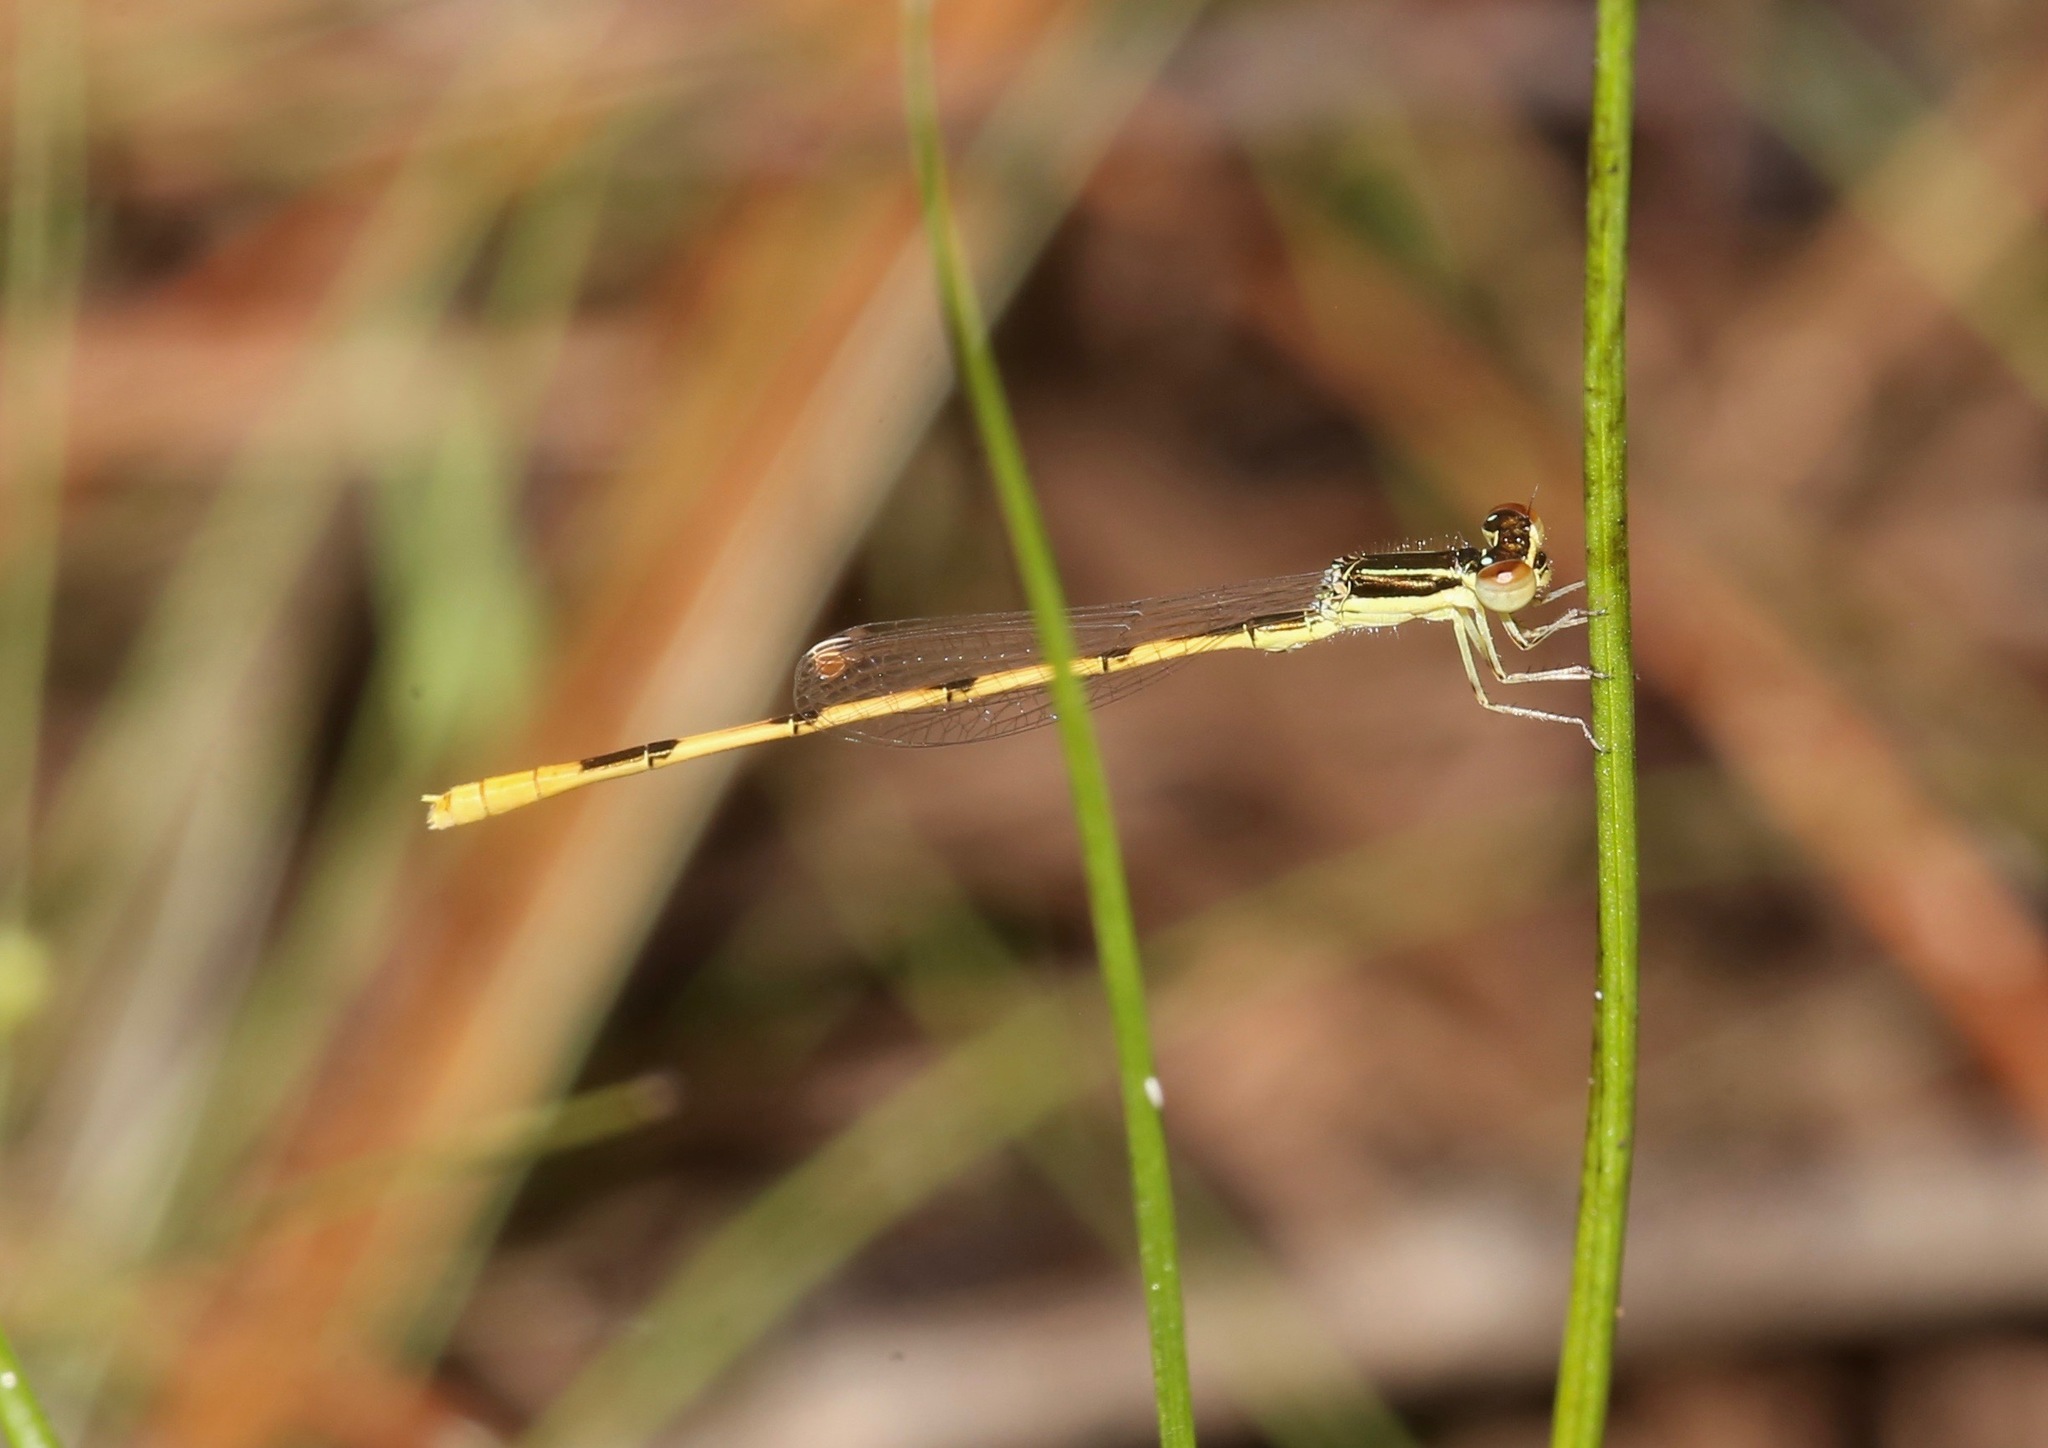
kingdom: Animalia
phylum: Arthropoda
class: Insecta
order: Odonata
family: Coenagrionidae
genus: Ischnura
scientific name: Ischnura hastata
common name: Citrine forktail
